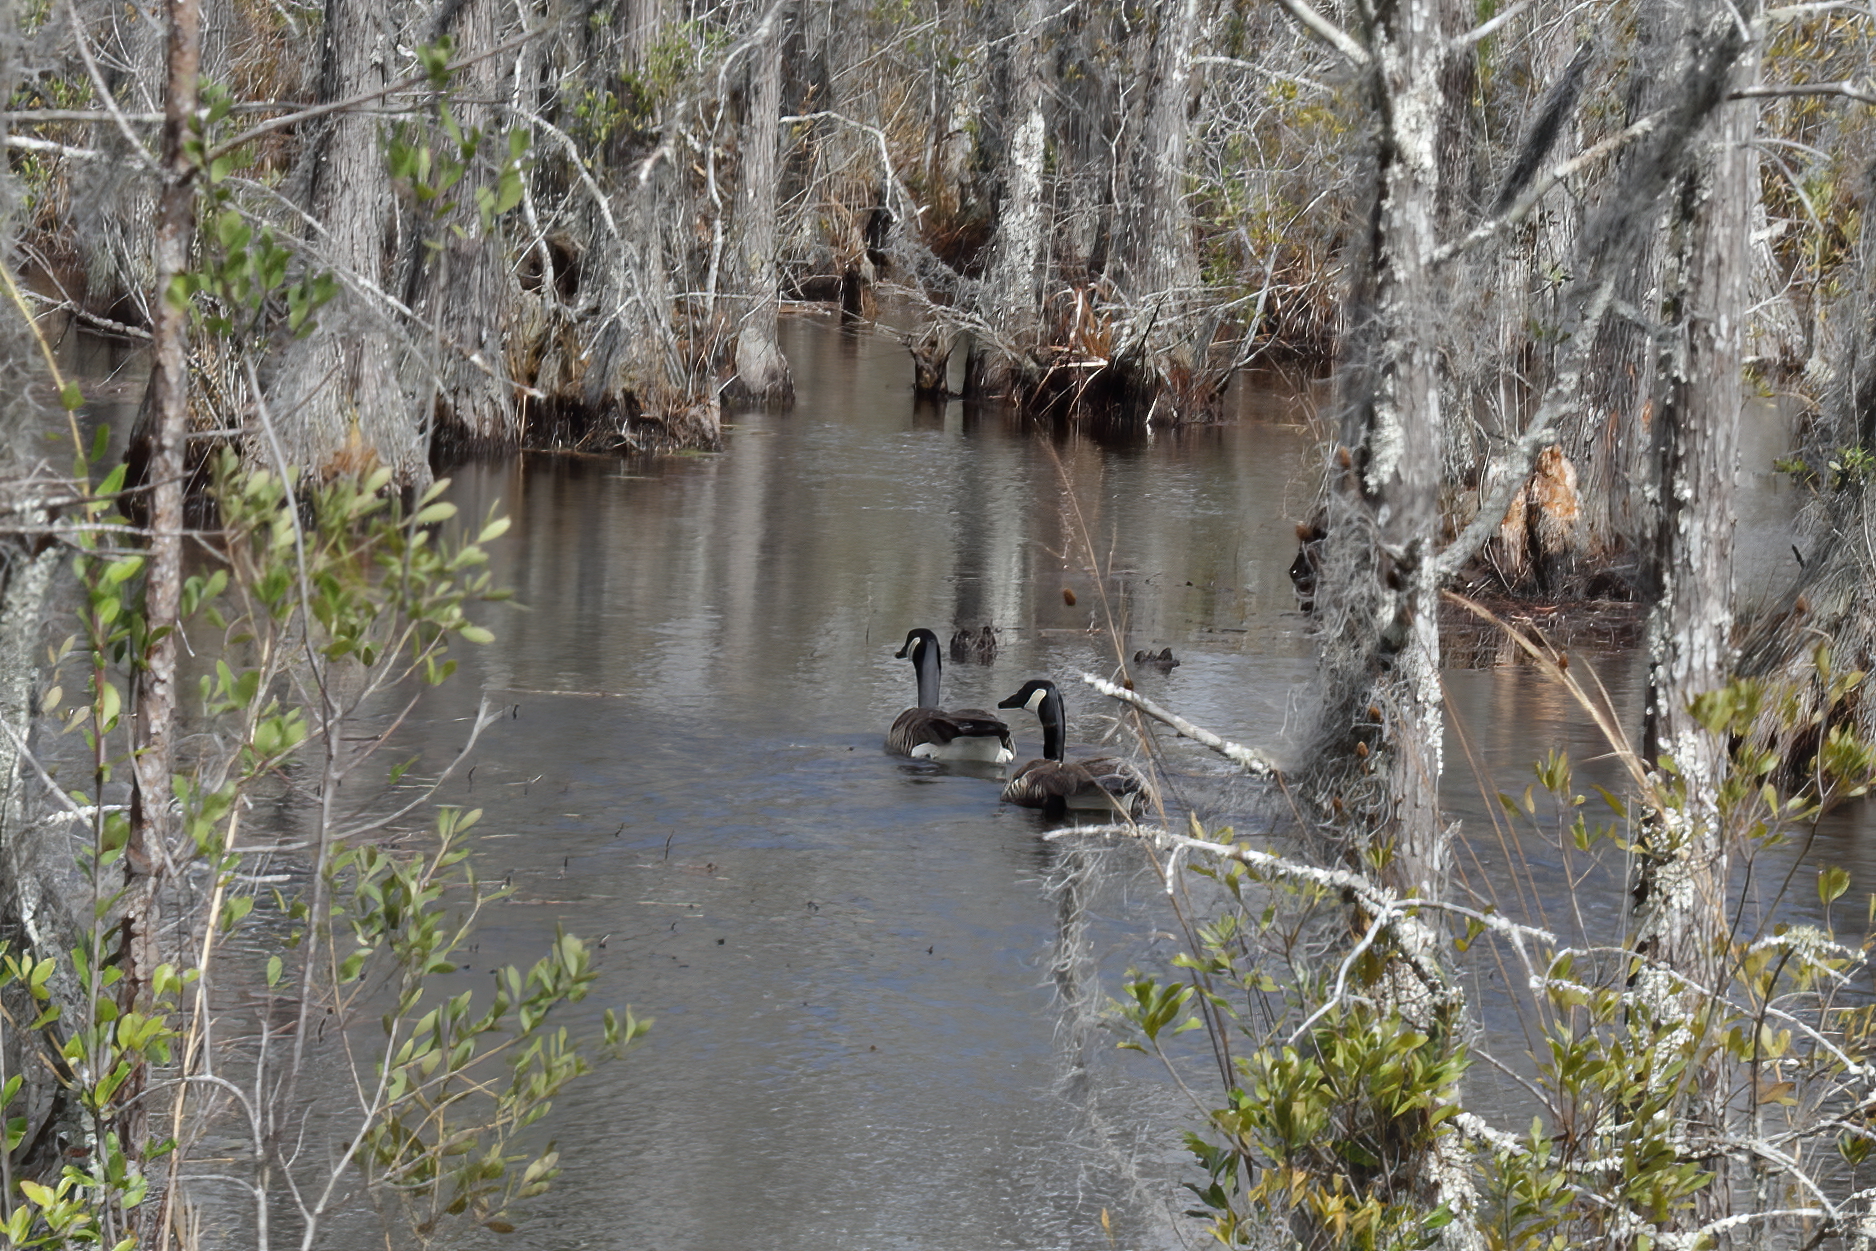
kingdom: Animalia
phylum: Chordata
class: Aves
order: Anseriformes
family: Anatidae
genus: Branta
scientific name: Branta canadensis
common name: Canada goose
